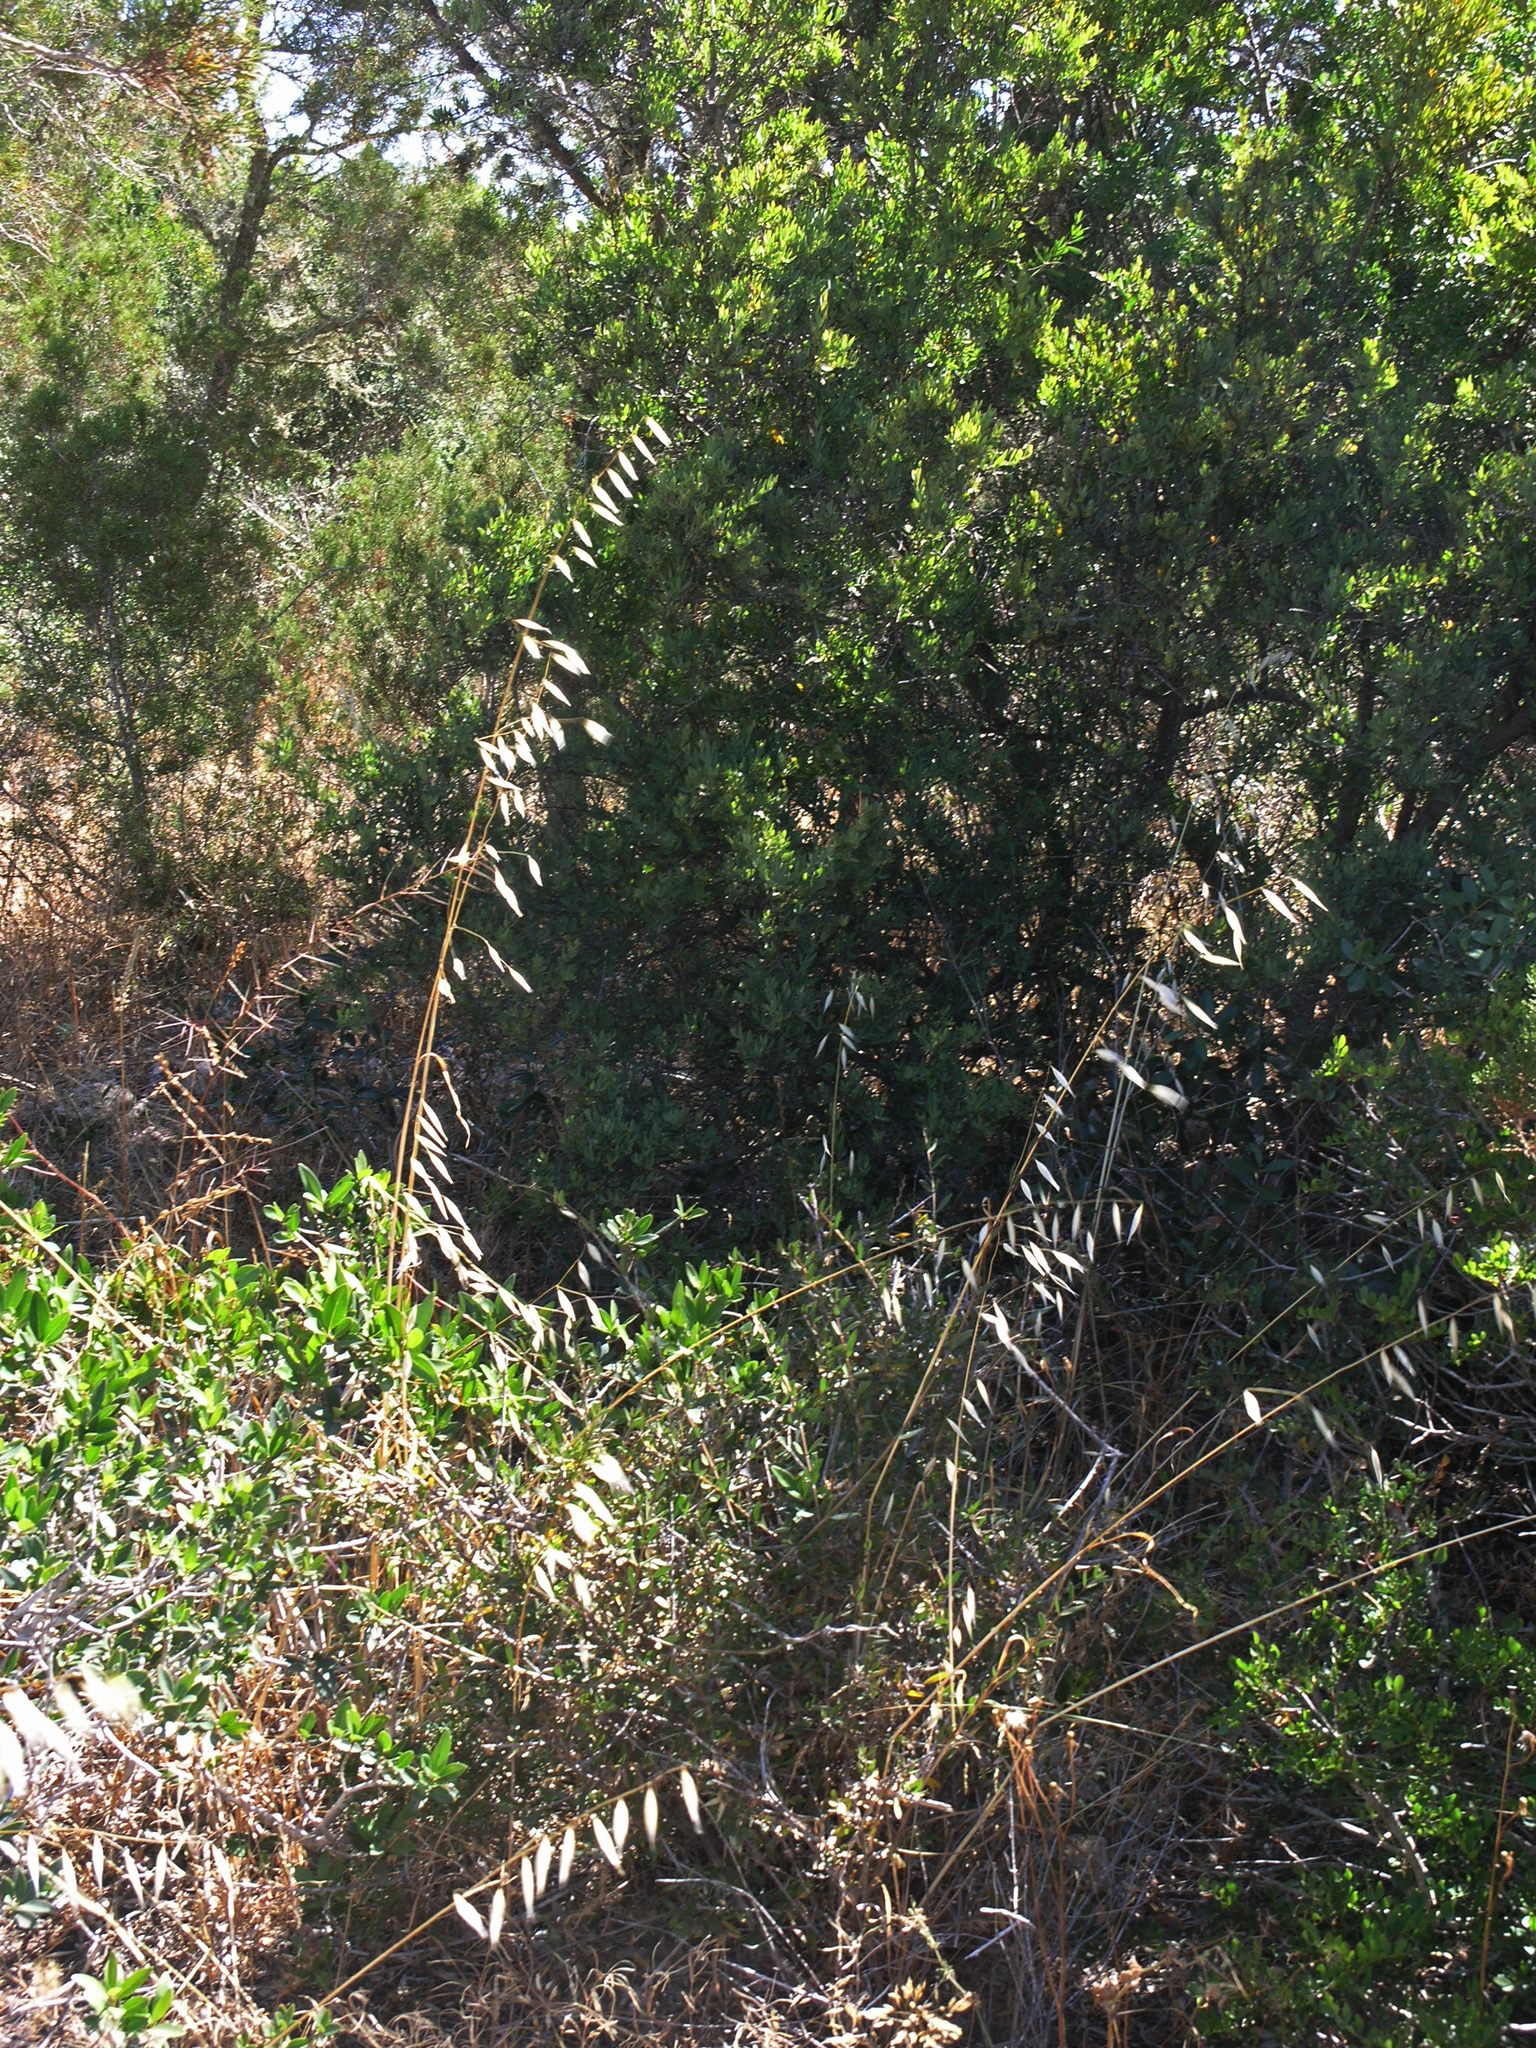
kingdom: Plantae
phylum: Tracheophyta
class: Liliopsida
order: Poales
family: Poaceae
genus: Avena
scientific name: Avena sterilis
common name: Animated oat
